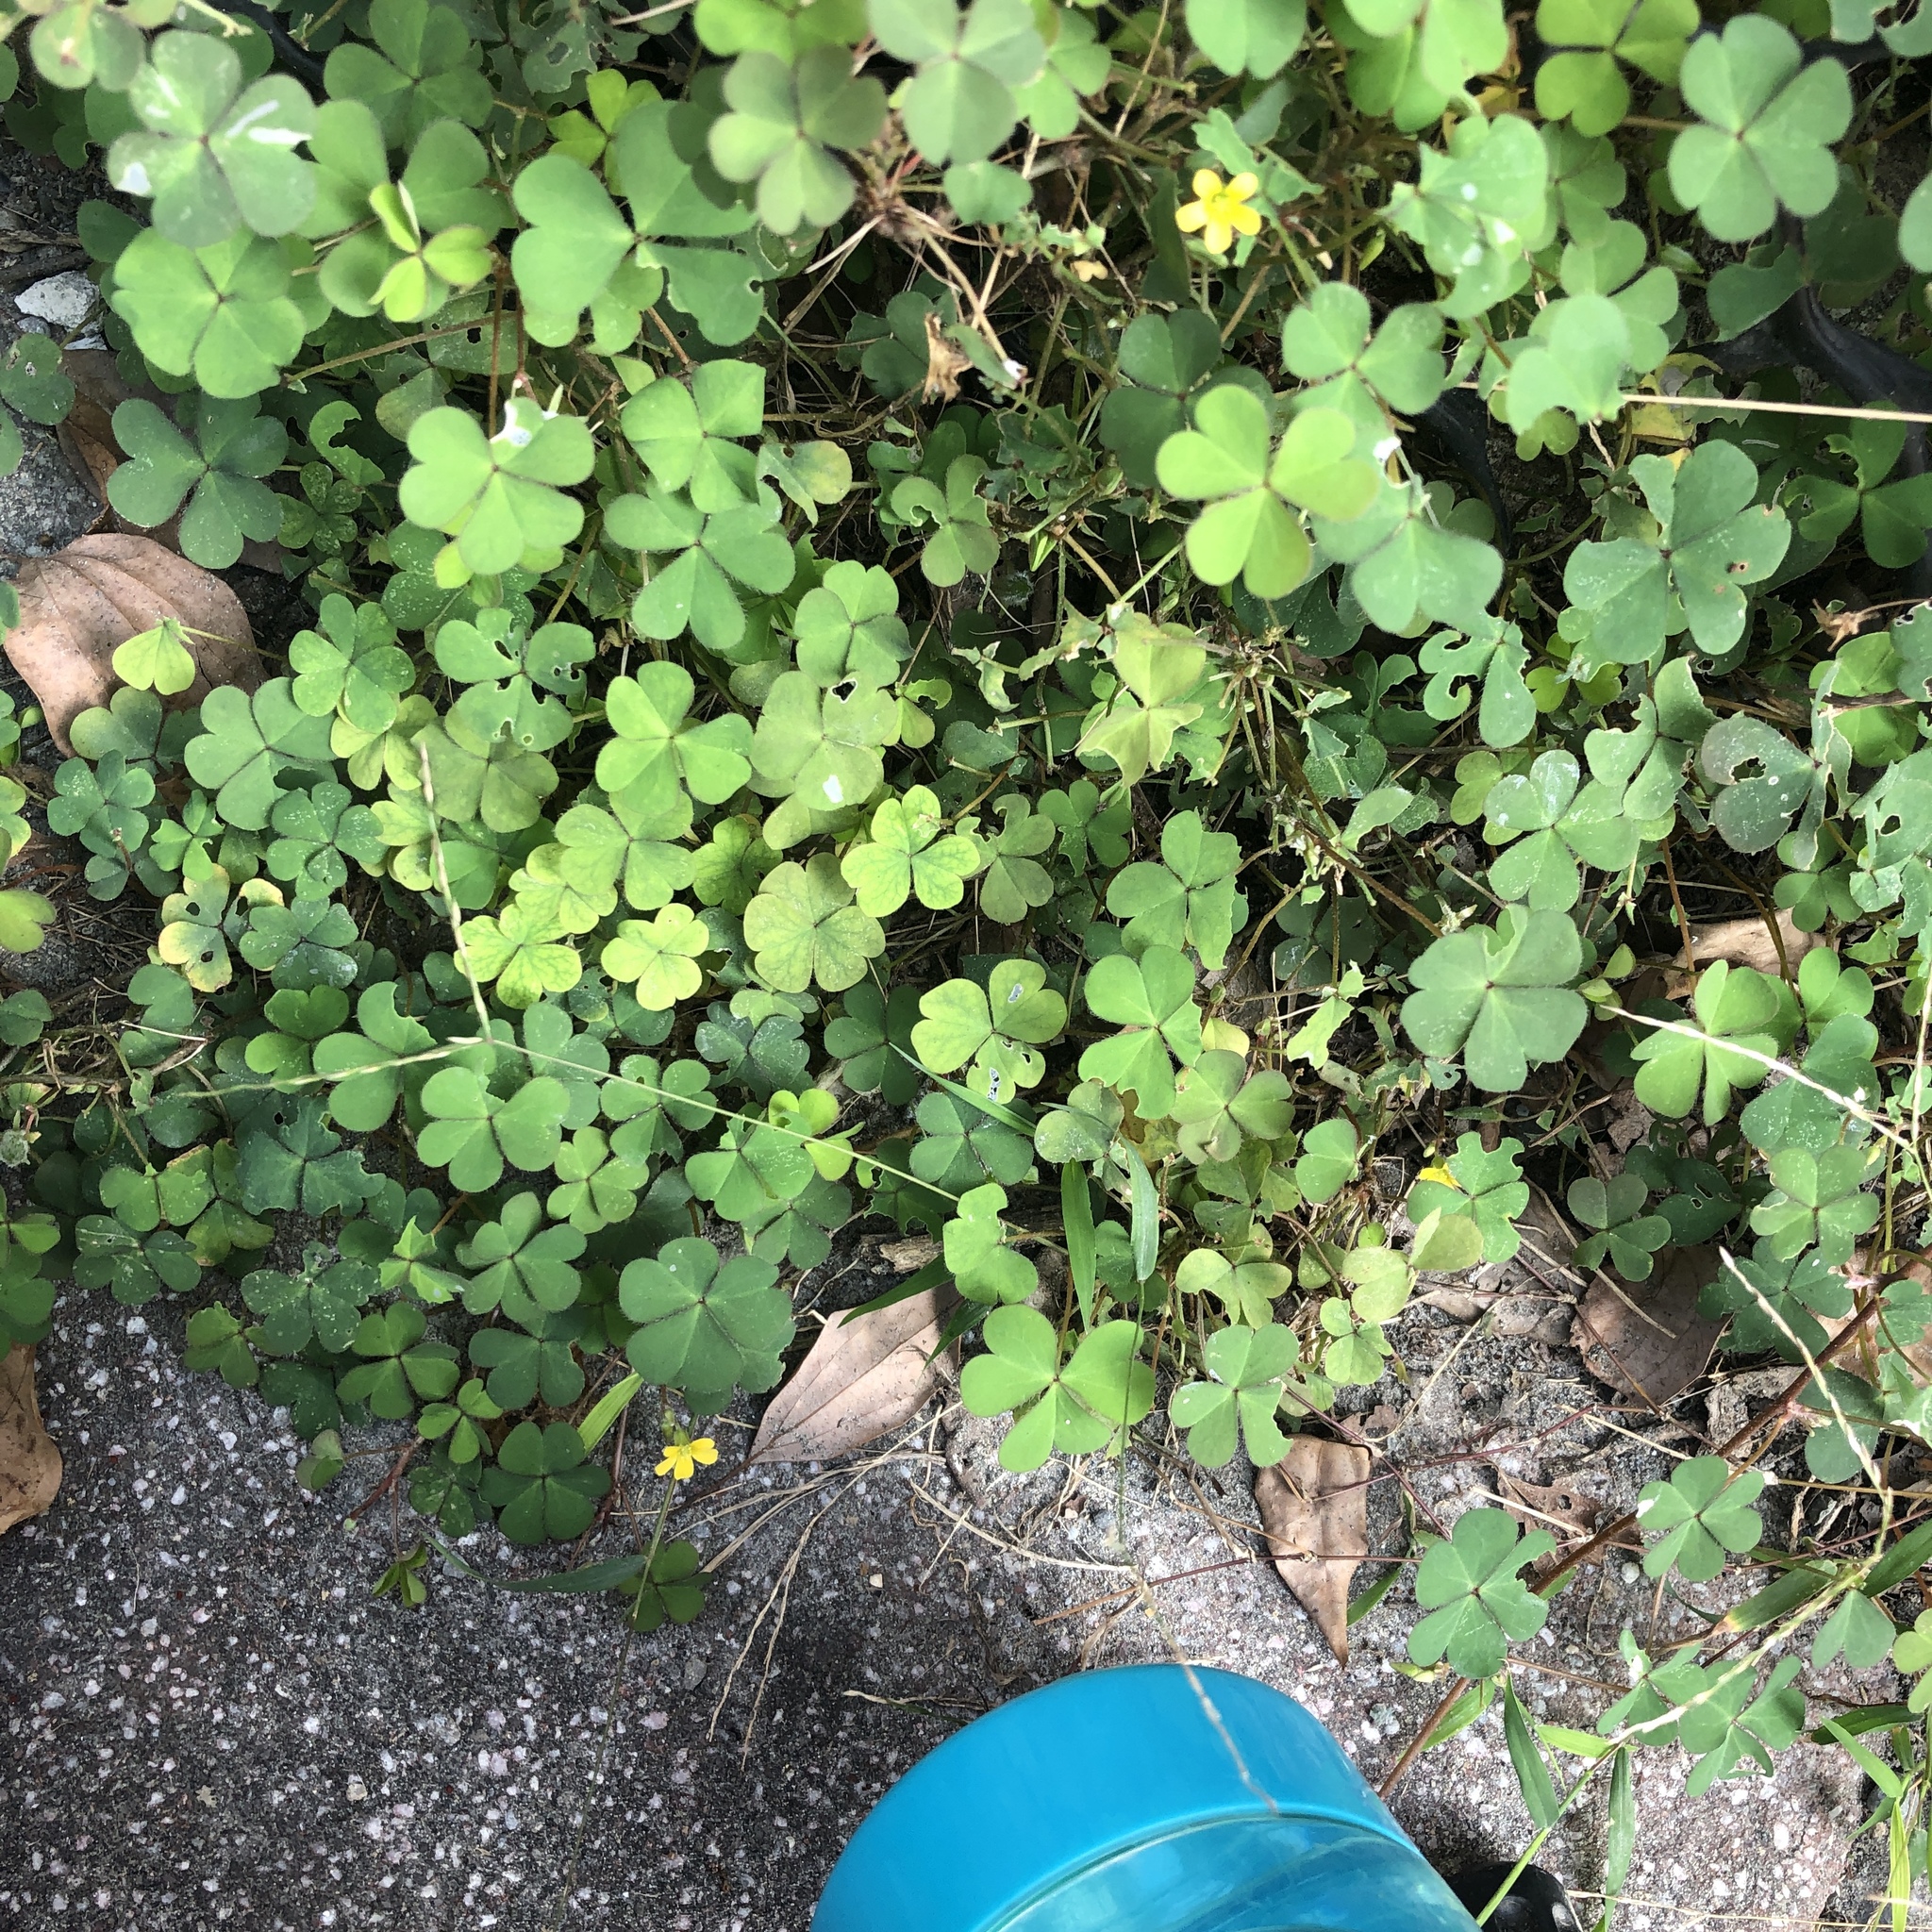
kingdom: Plantae
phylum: Tracheophyta
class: Magnoliopsida
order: Oxalidales
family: Oxalidaceae
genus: Oxalis
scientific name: Oxalis corniculata
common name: Procumbent yellow-sorrel
